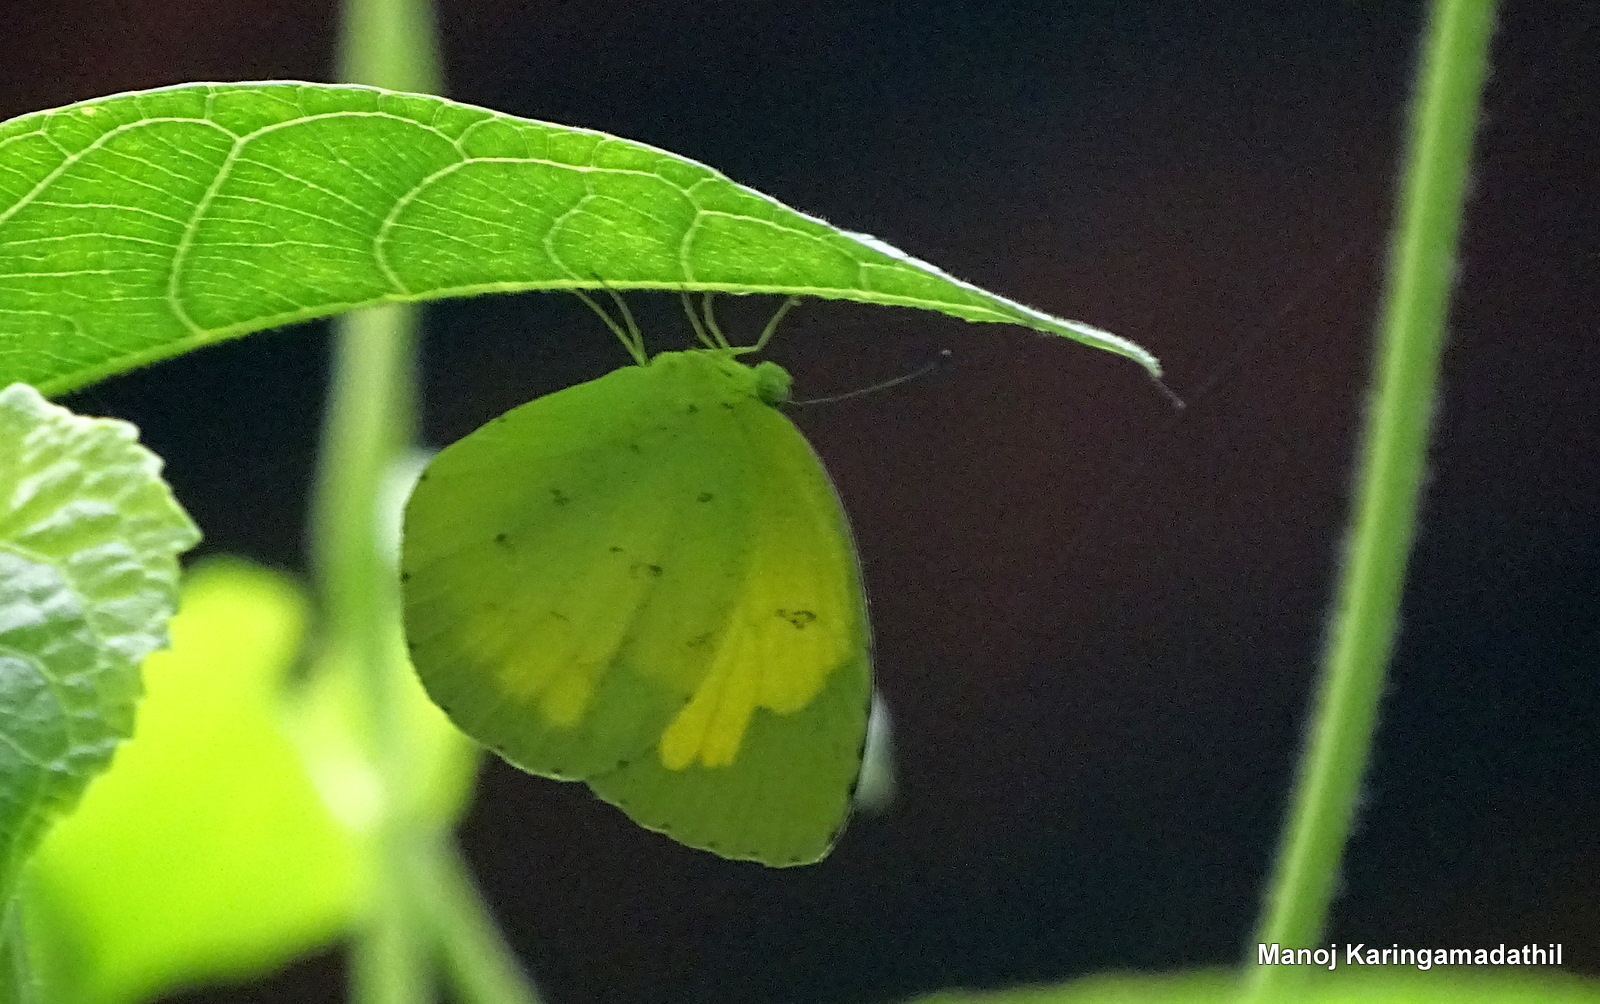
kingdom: Animalia
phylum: Arthropoda
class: Insecta
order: Lepidoptera
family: Pieridae
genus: Eurema
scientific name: Eurema hecabe
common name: Pale grass yellow
